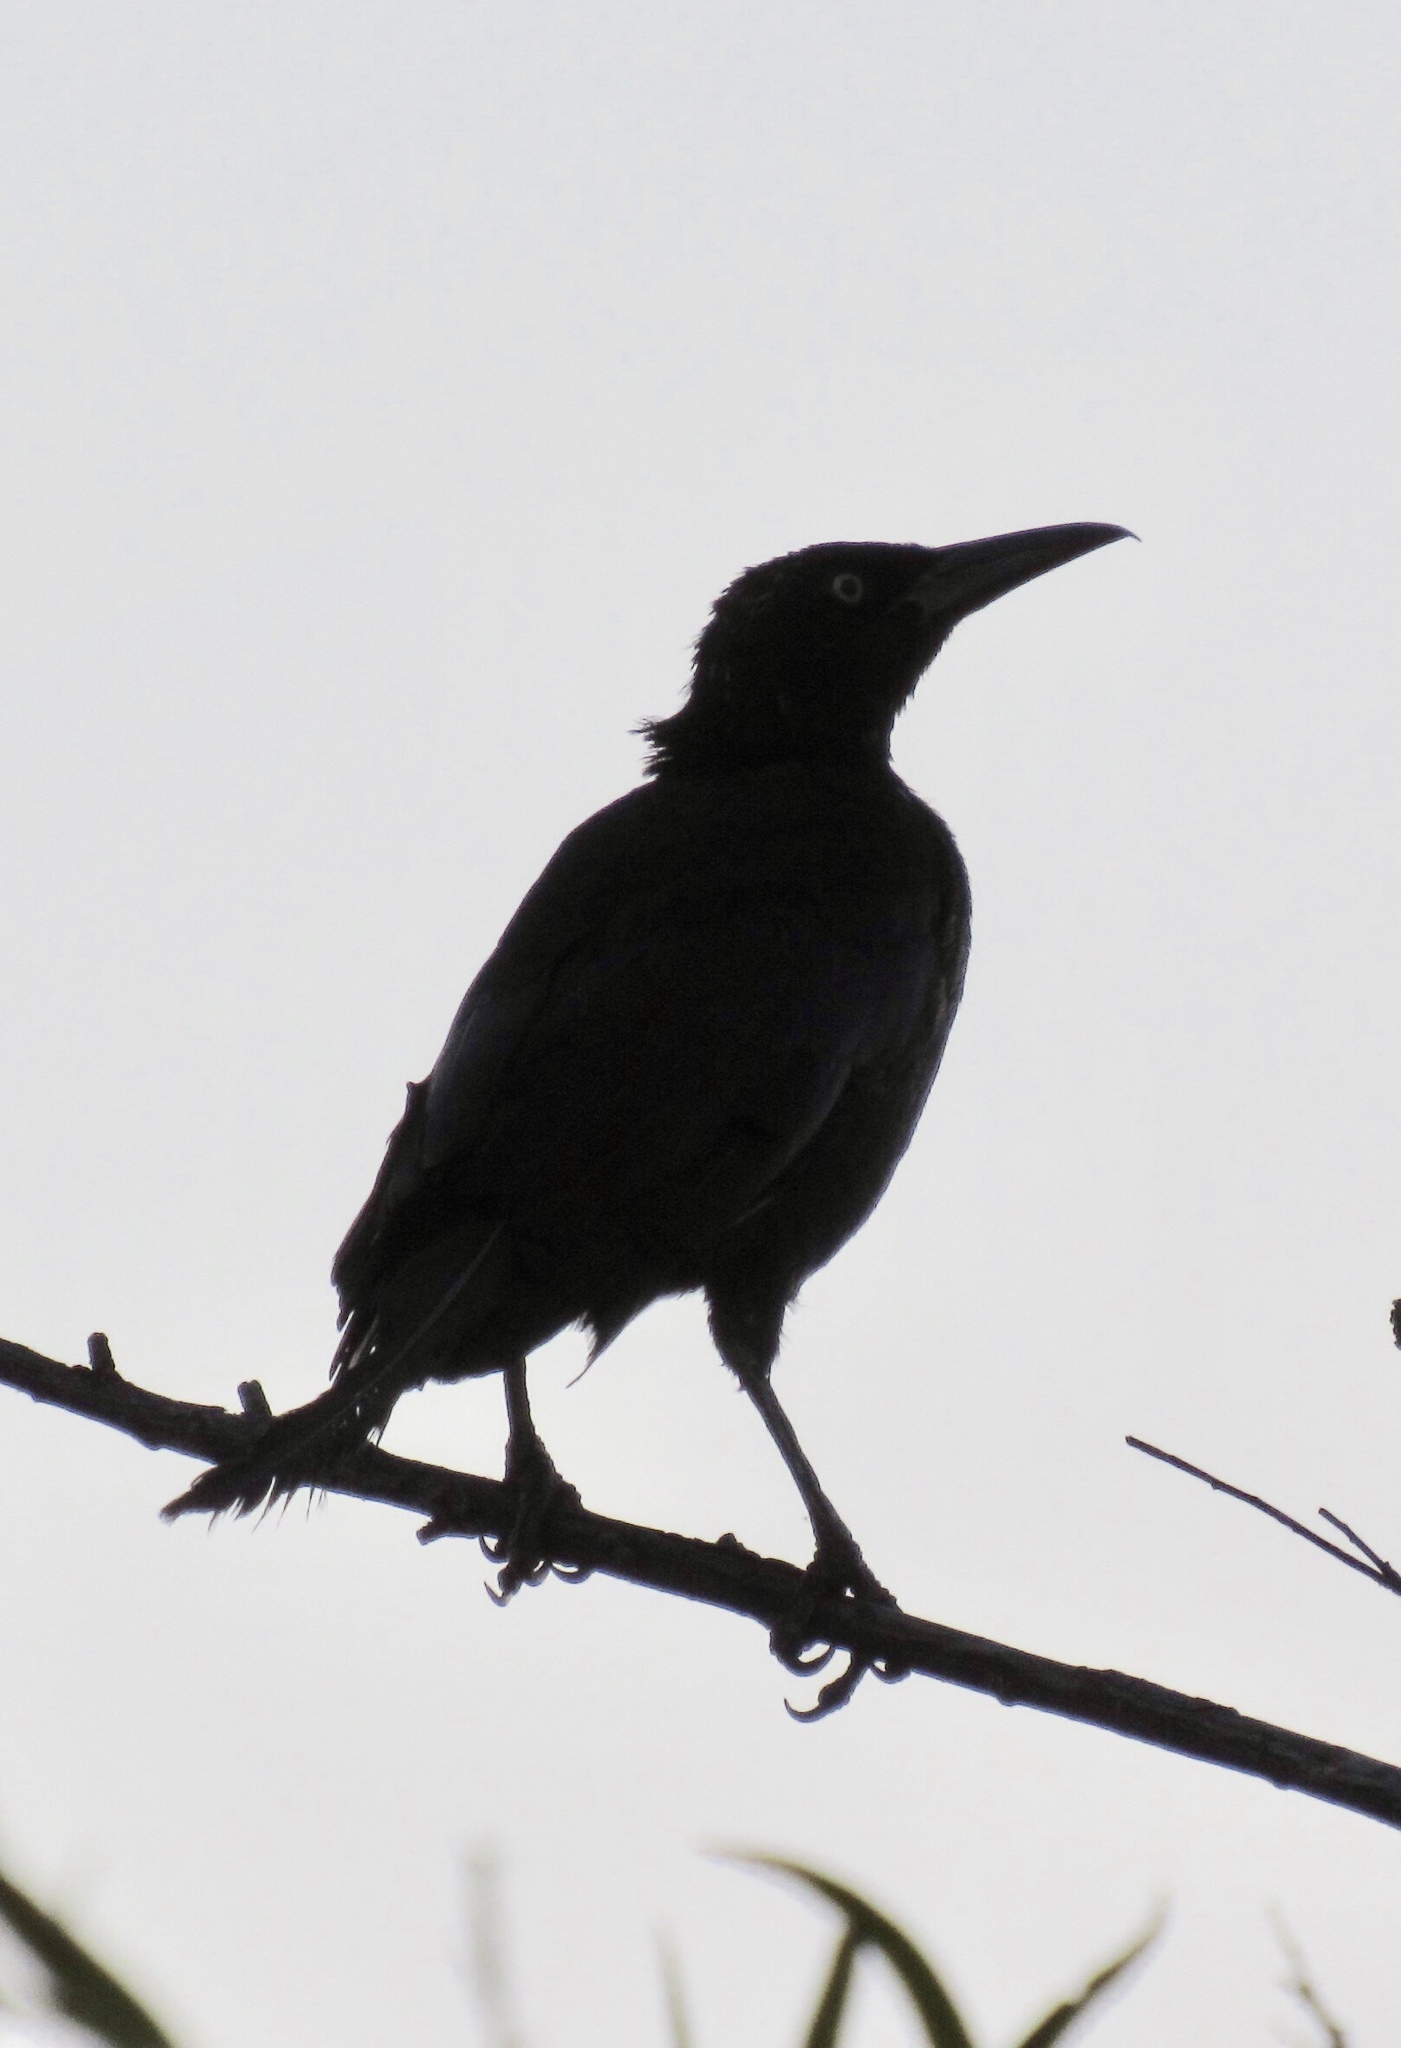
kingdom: Animalia
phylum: Chordata
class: Aves
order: Passeriformes
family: Icteridae
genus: Quiscalus
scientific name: Quiscalus mexicanus
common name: Great-tailed grackle
